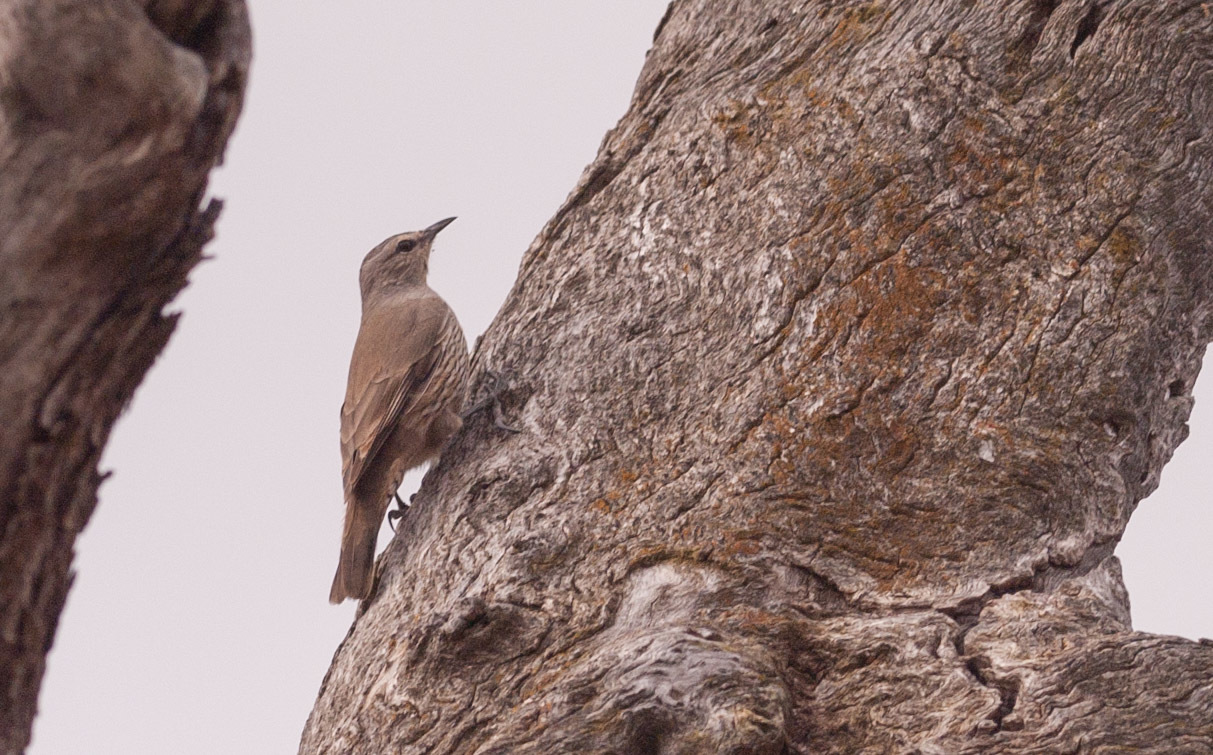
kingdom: Animalia
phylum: Chordata
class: Aves
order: Passeriformes
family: Climacteridae
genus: Climacteris
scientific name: Climacteris picumnus
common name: Brown treecreeper
